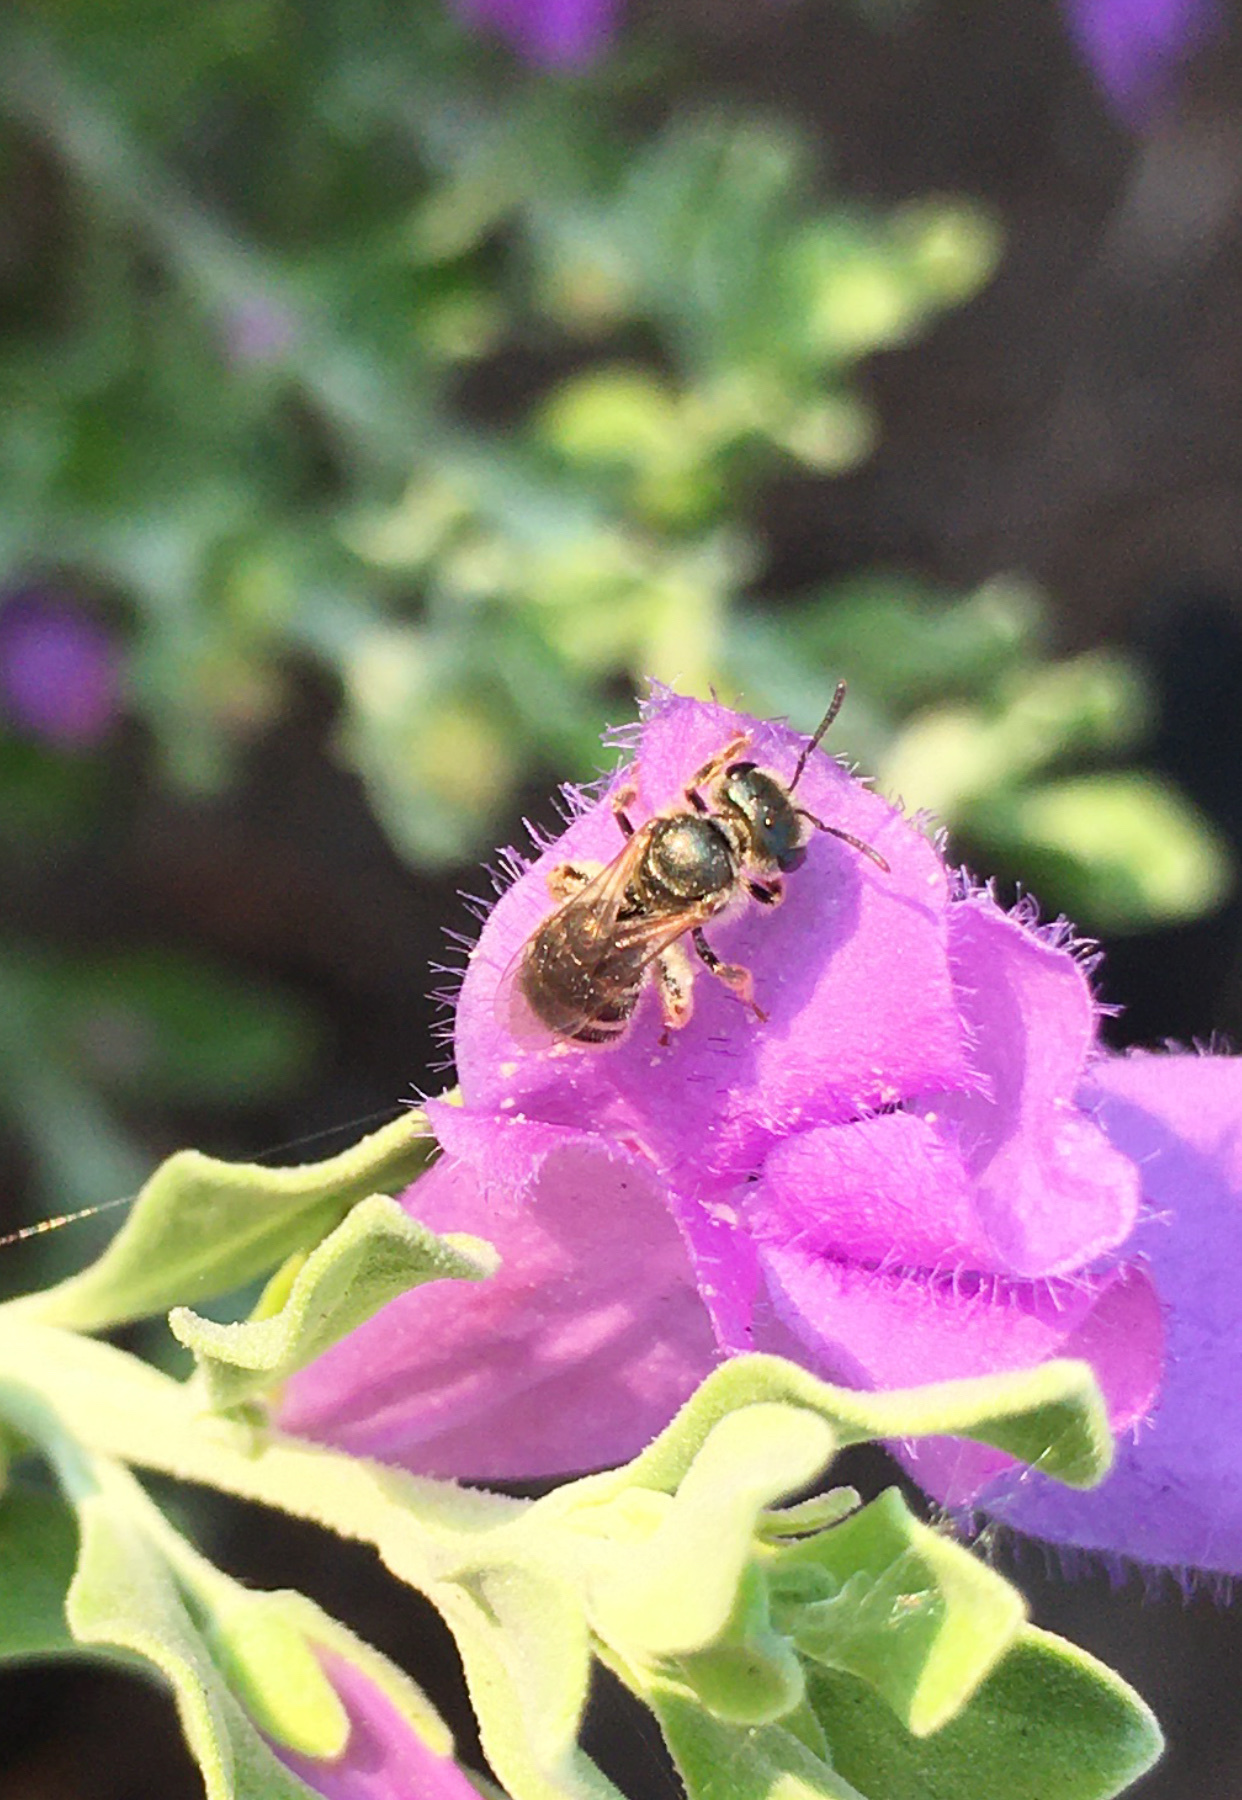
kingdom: Animalia
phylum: Arthropoda
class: Insecta
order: Hymenoptera
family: Halictidae
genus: Halictus
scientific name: Halictus tripartitus
